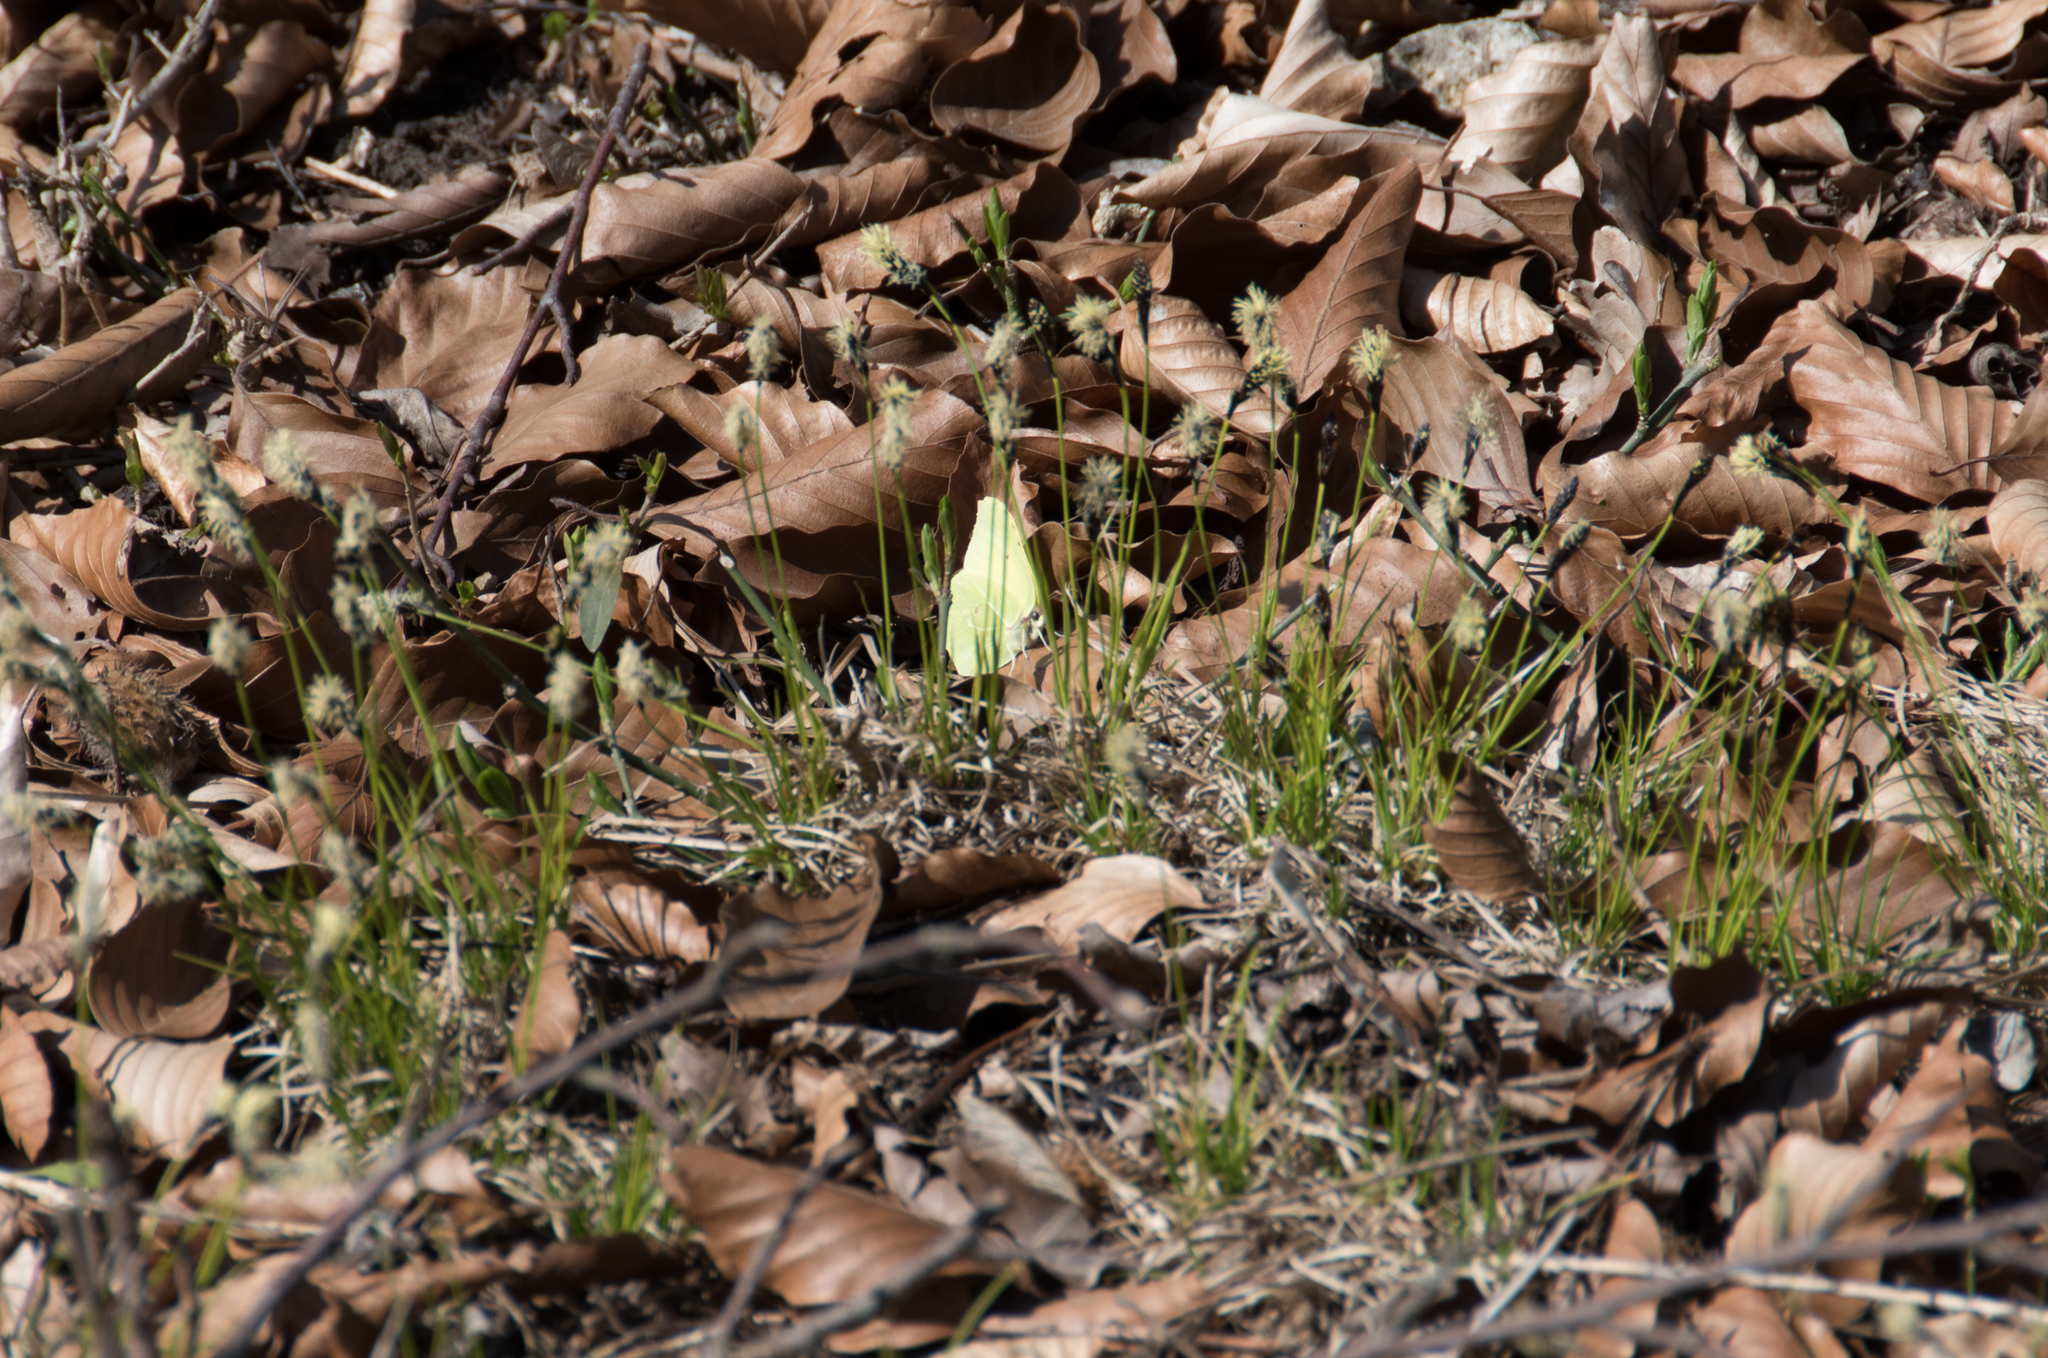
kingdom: Animalia
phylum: Arthropoda
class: Insecta
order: Lepidoptera
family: Pieridae
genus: Gonepteryx
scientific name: Gonepteryx rhamni
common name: Brimstone
